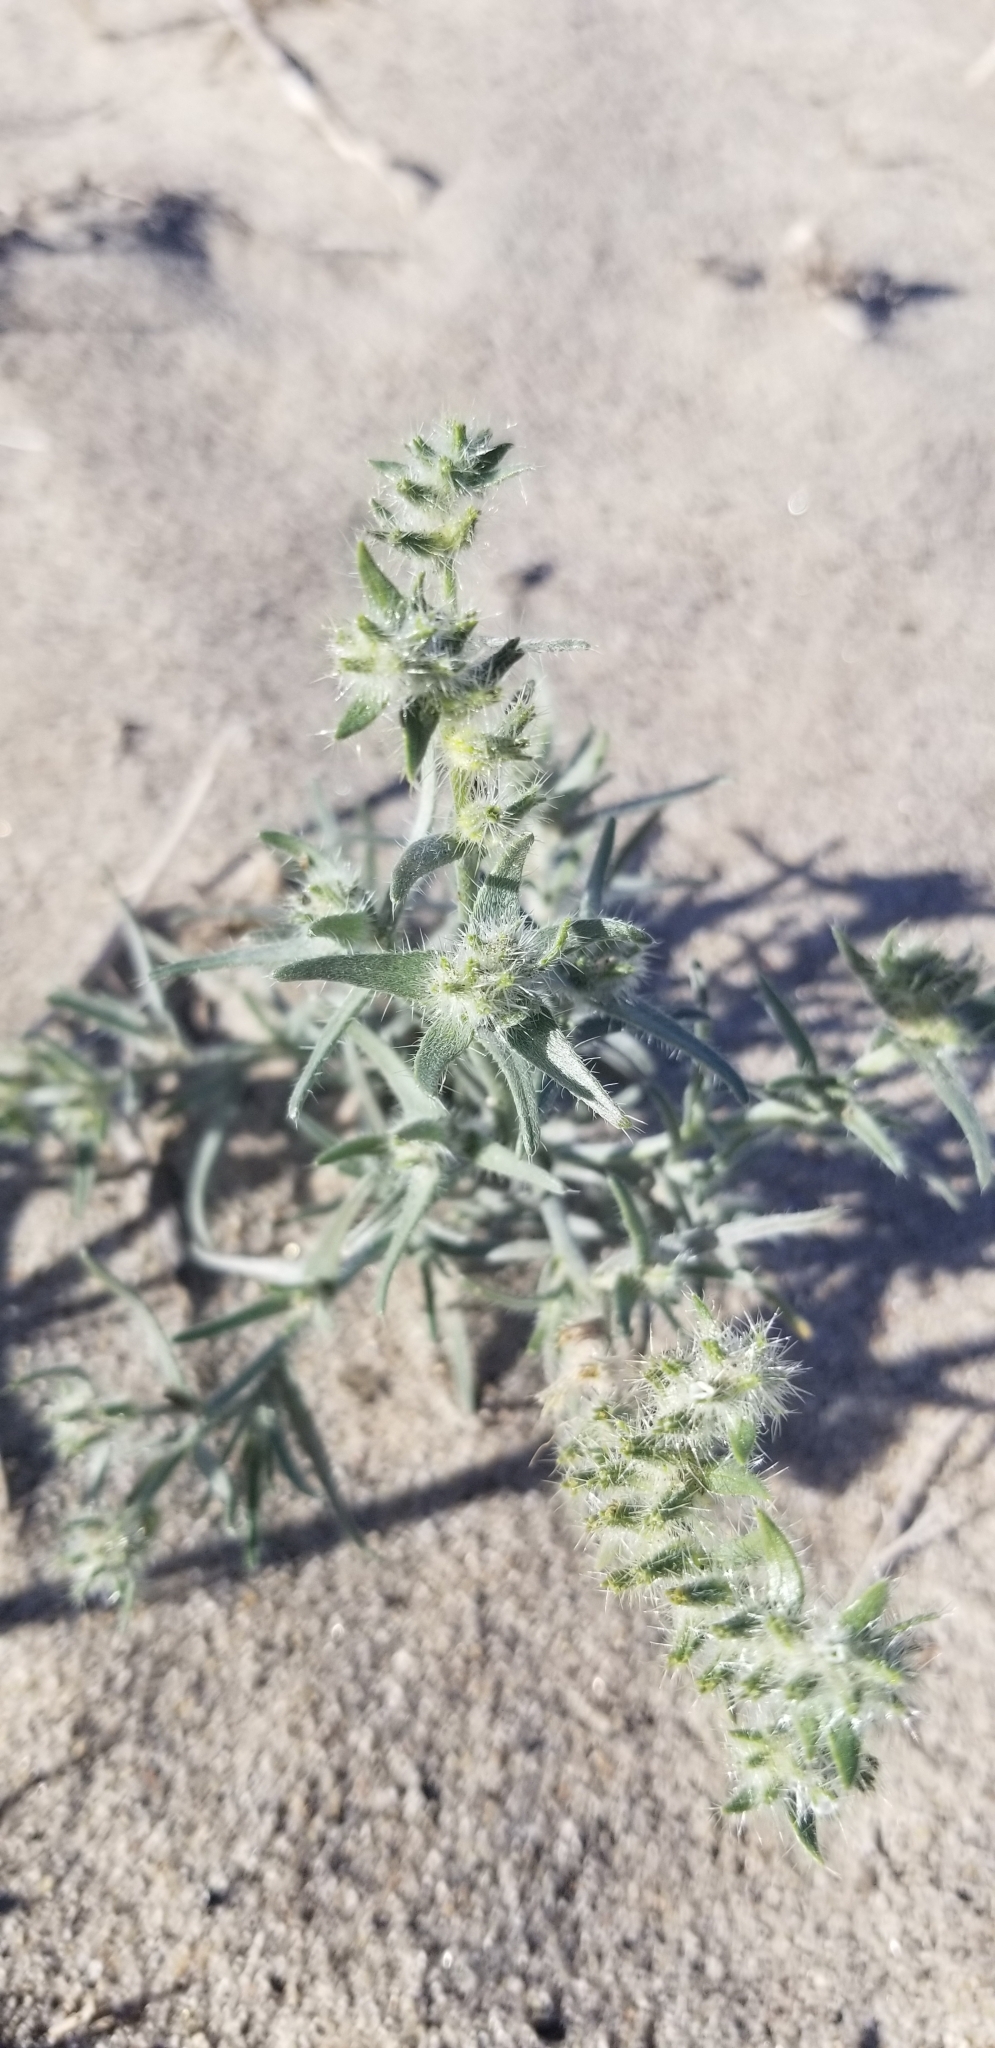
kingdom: Plantae
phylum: Tracheophyta
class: Magnoliopsida
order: Boraginales
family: Boraginaceae
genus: Johnstonella
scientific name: Johnstonella costata
